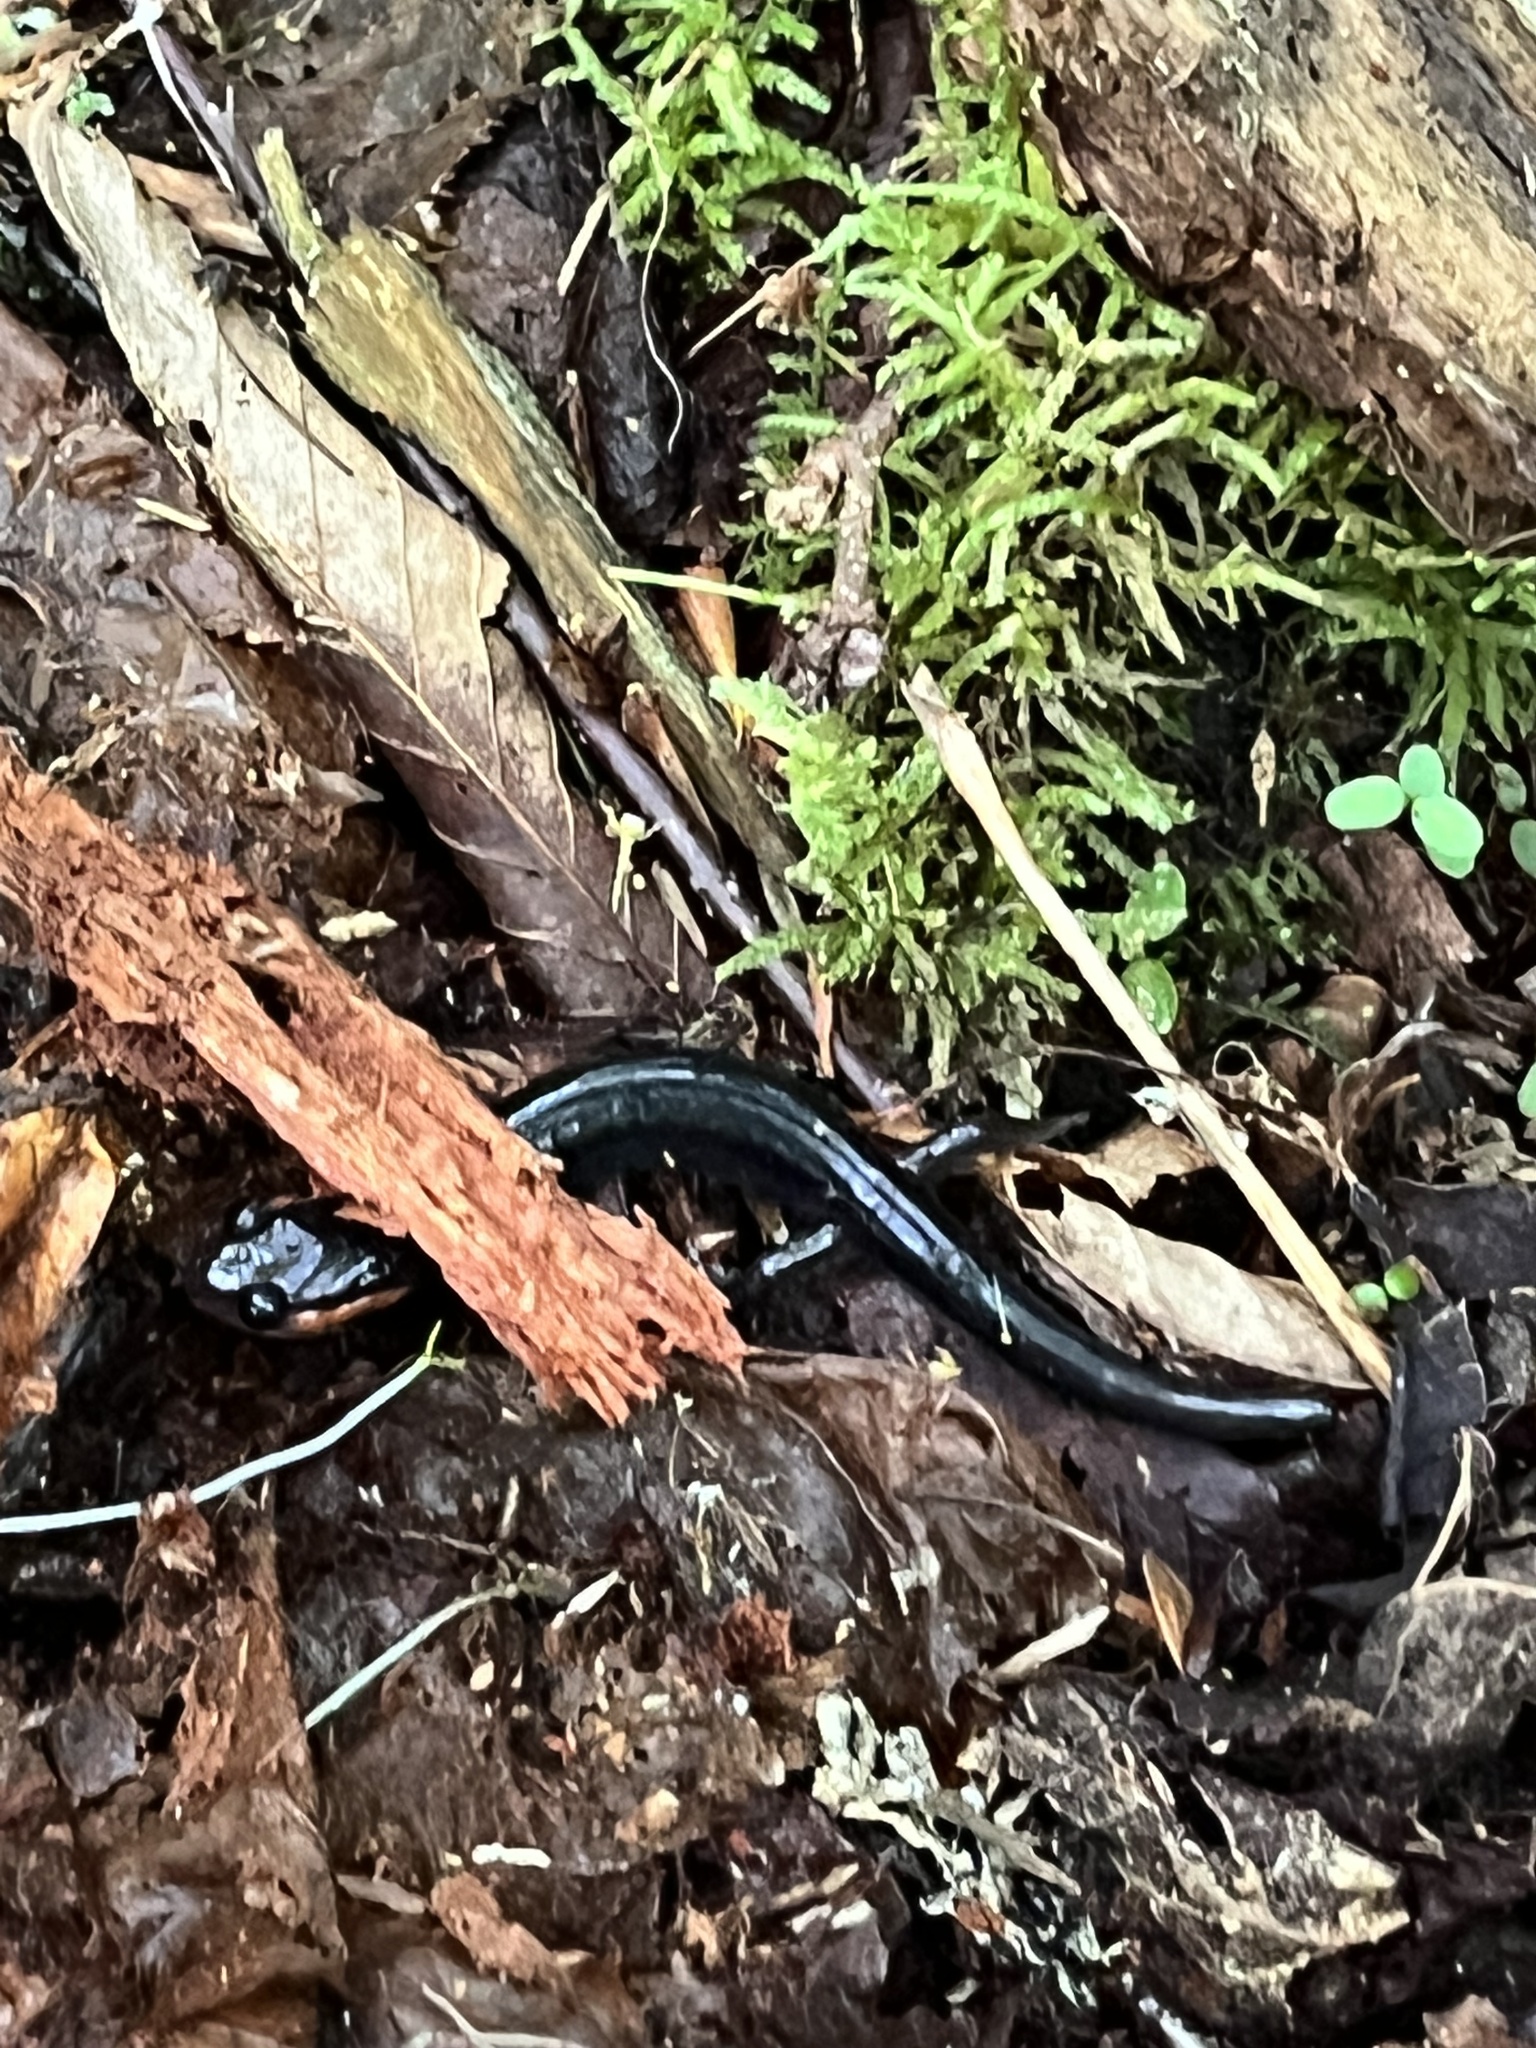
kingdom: Animalia
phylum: Chordata
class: Amphibia
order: Caudata
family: Plethodontidae
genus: Plethodon
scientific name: Plethodon jordani
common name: Red-cheeked salamander
